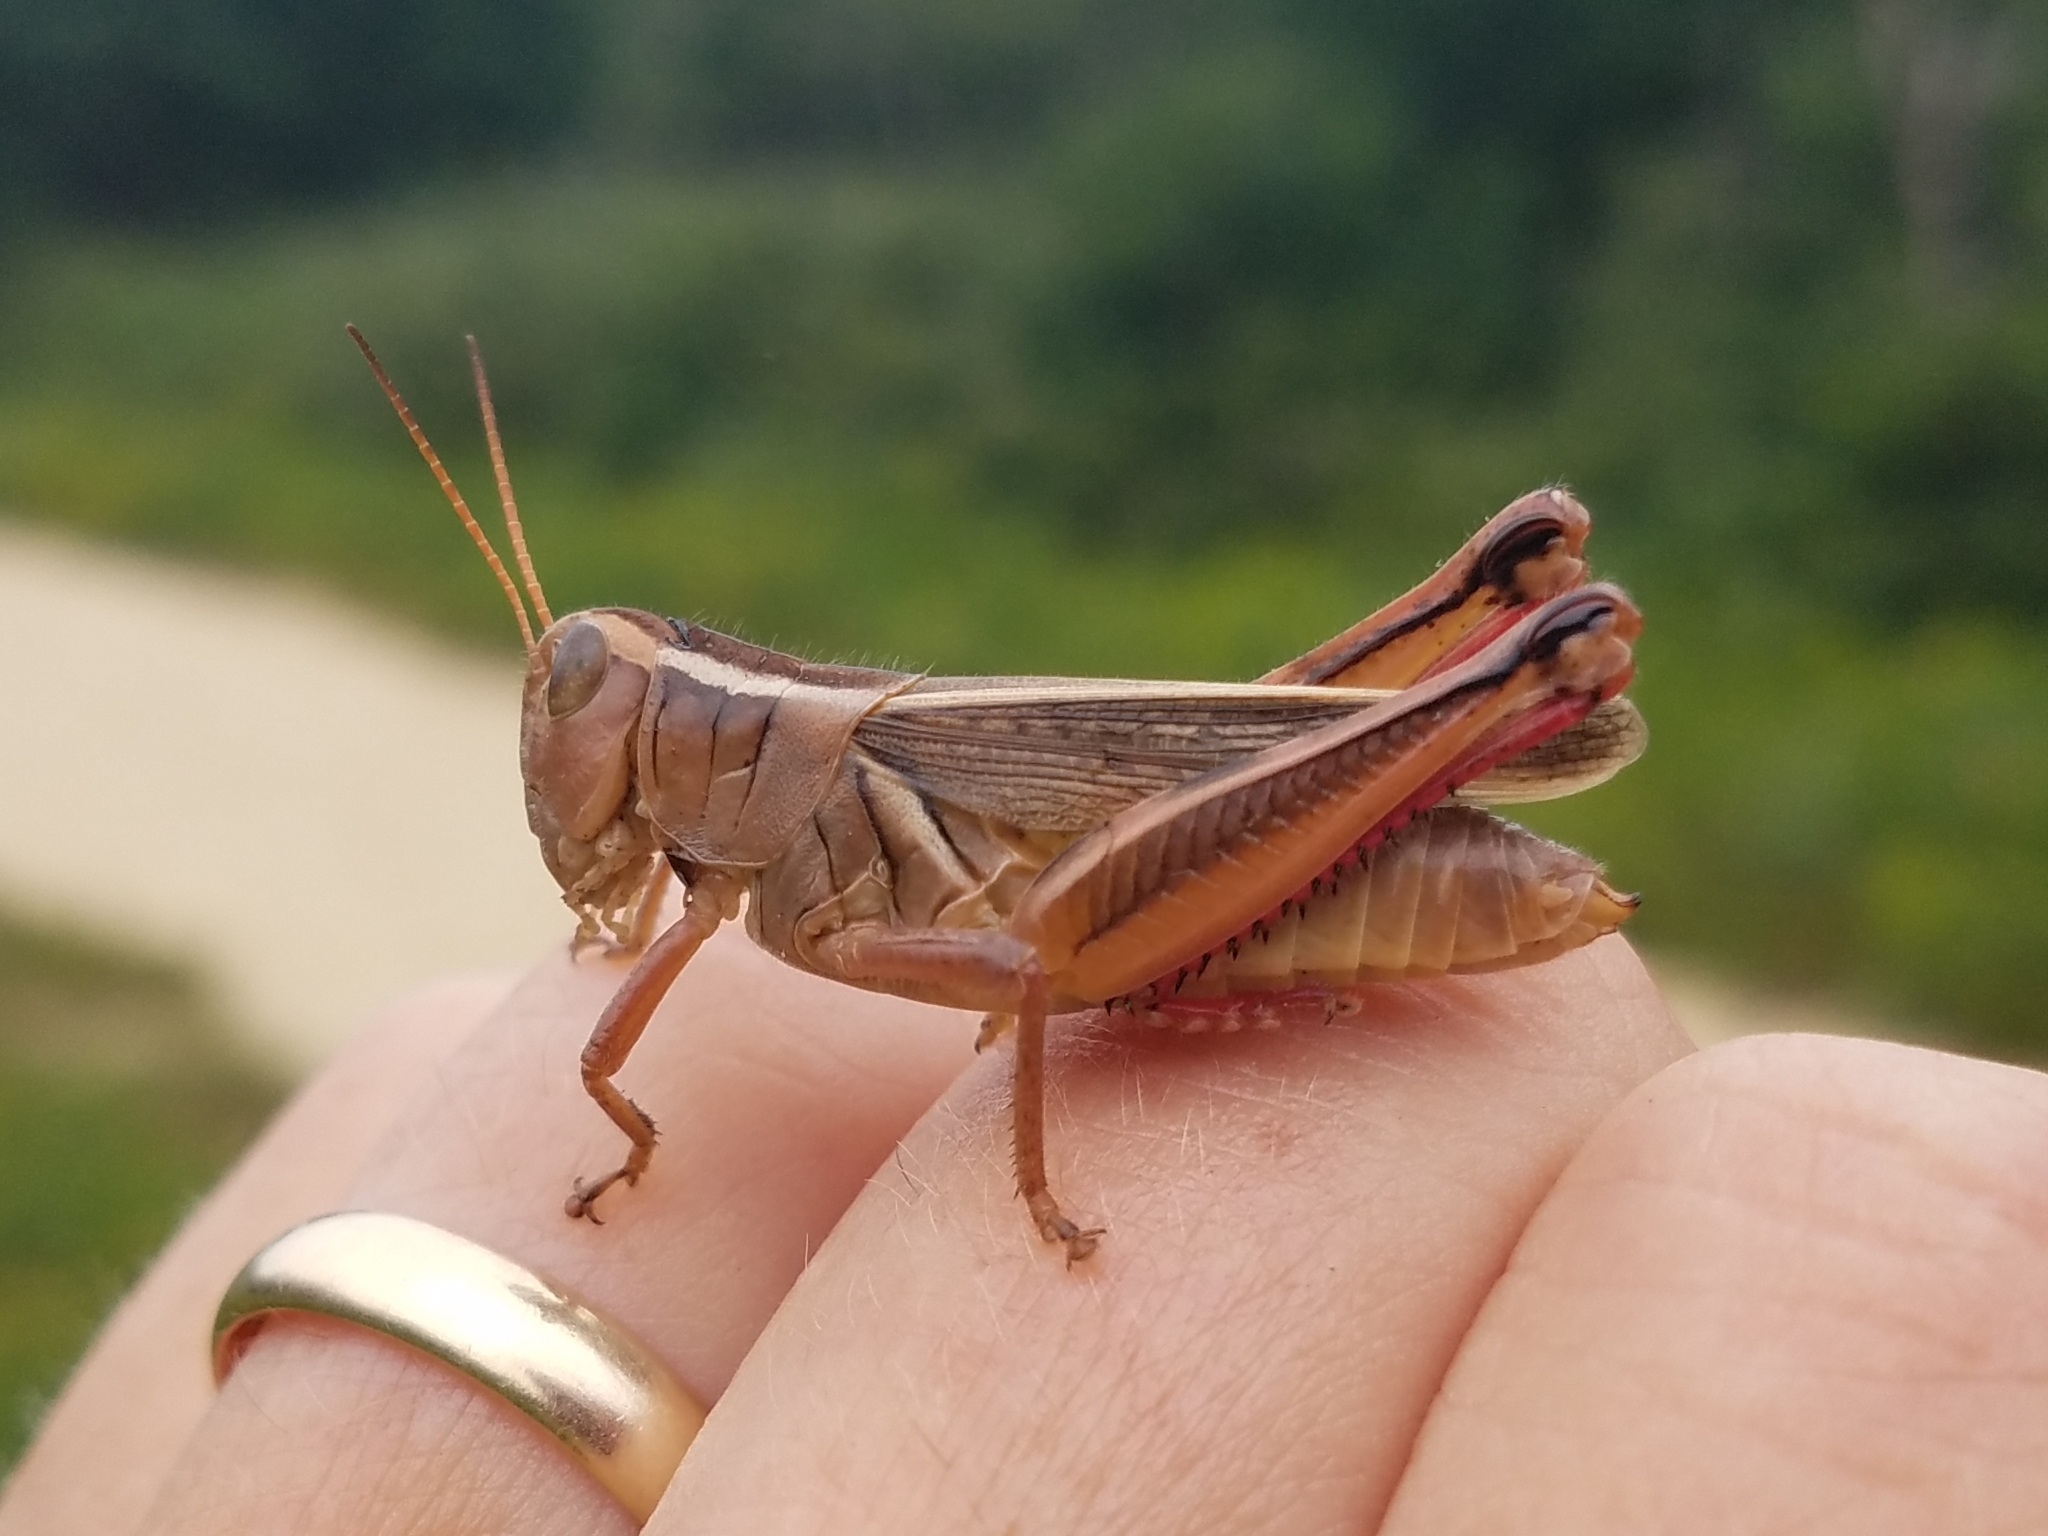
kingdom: Animalia
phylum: Arthropoda
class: Insecta
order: Orthoptera
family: Acrididae
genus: Melanoplus
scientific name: Melanoplus bivittatus
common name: Two-striped grasshopper
